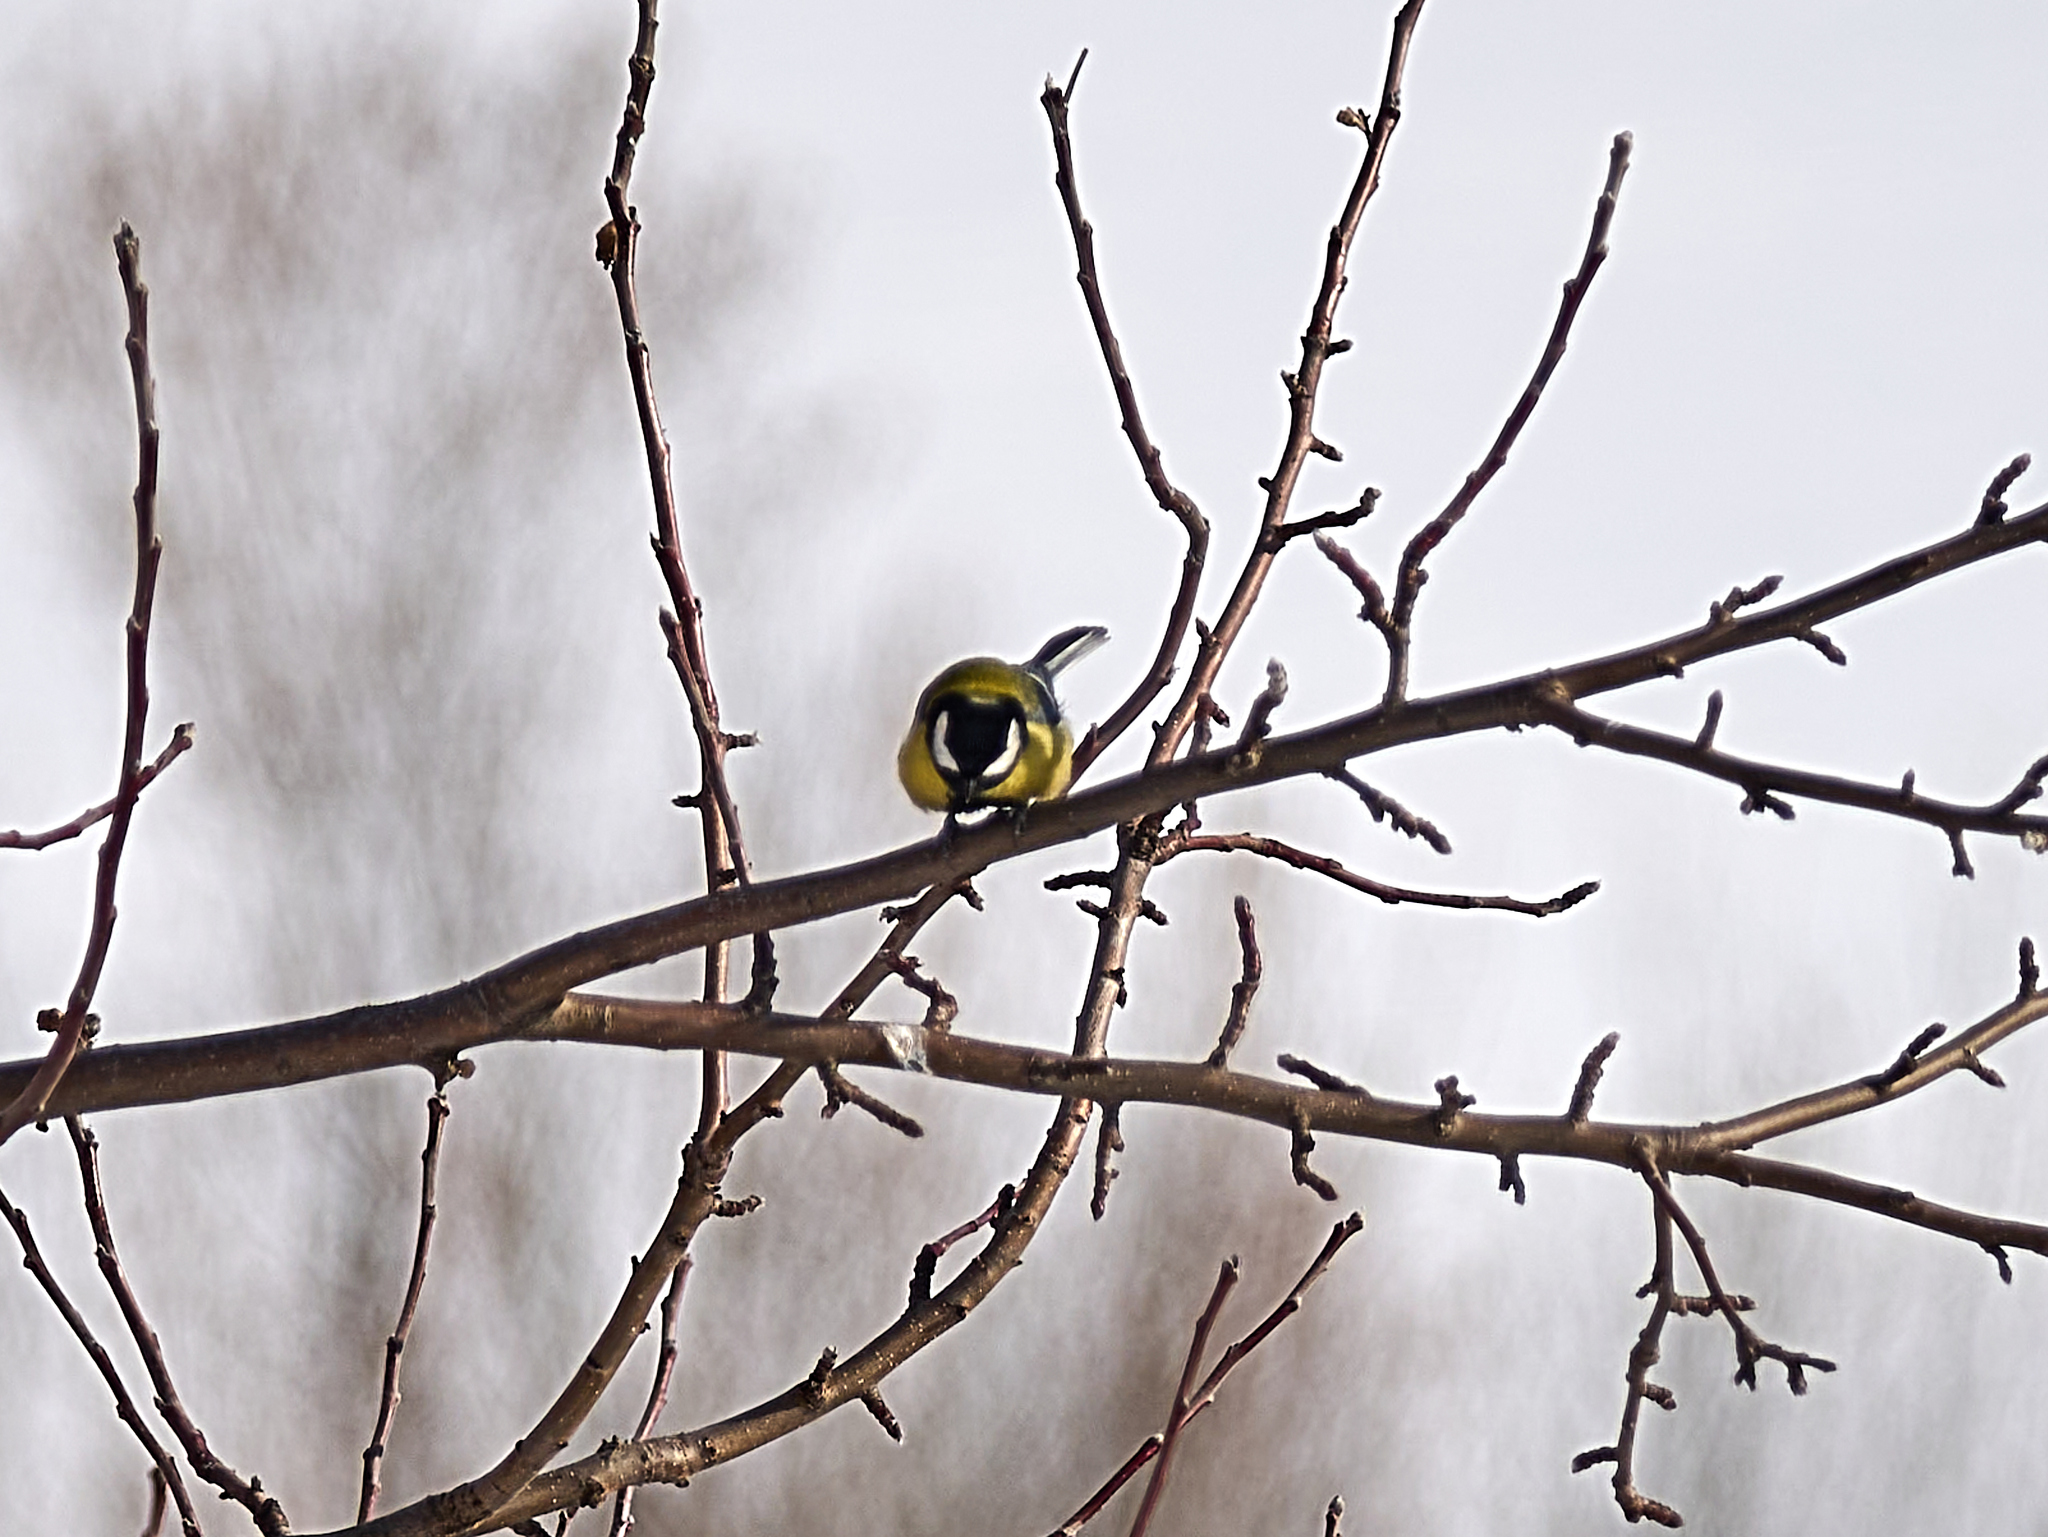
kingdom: Animalia
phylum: Chordata
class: Aves
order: Passeriformes
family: Paridae
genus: Parus
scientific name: Parus major
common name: Great tit
